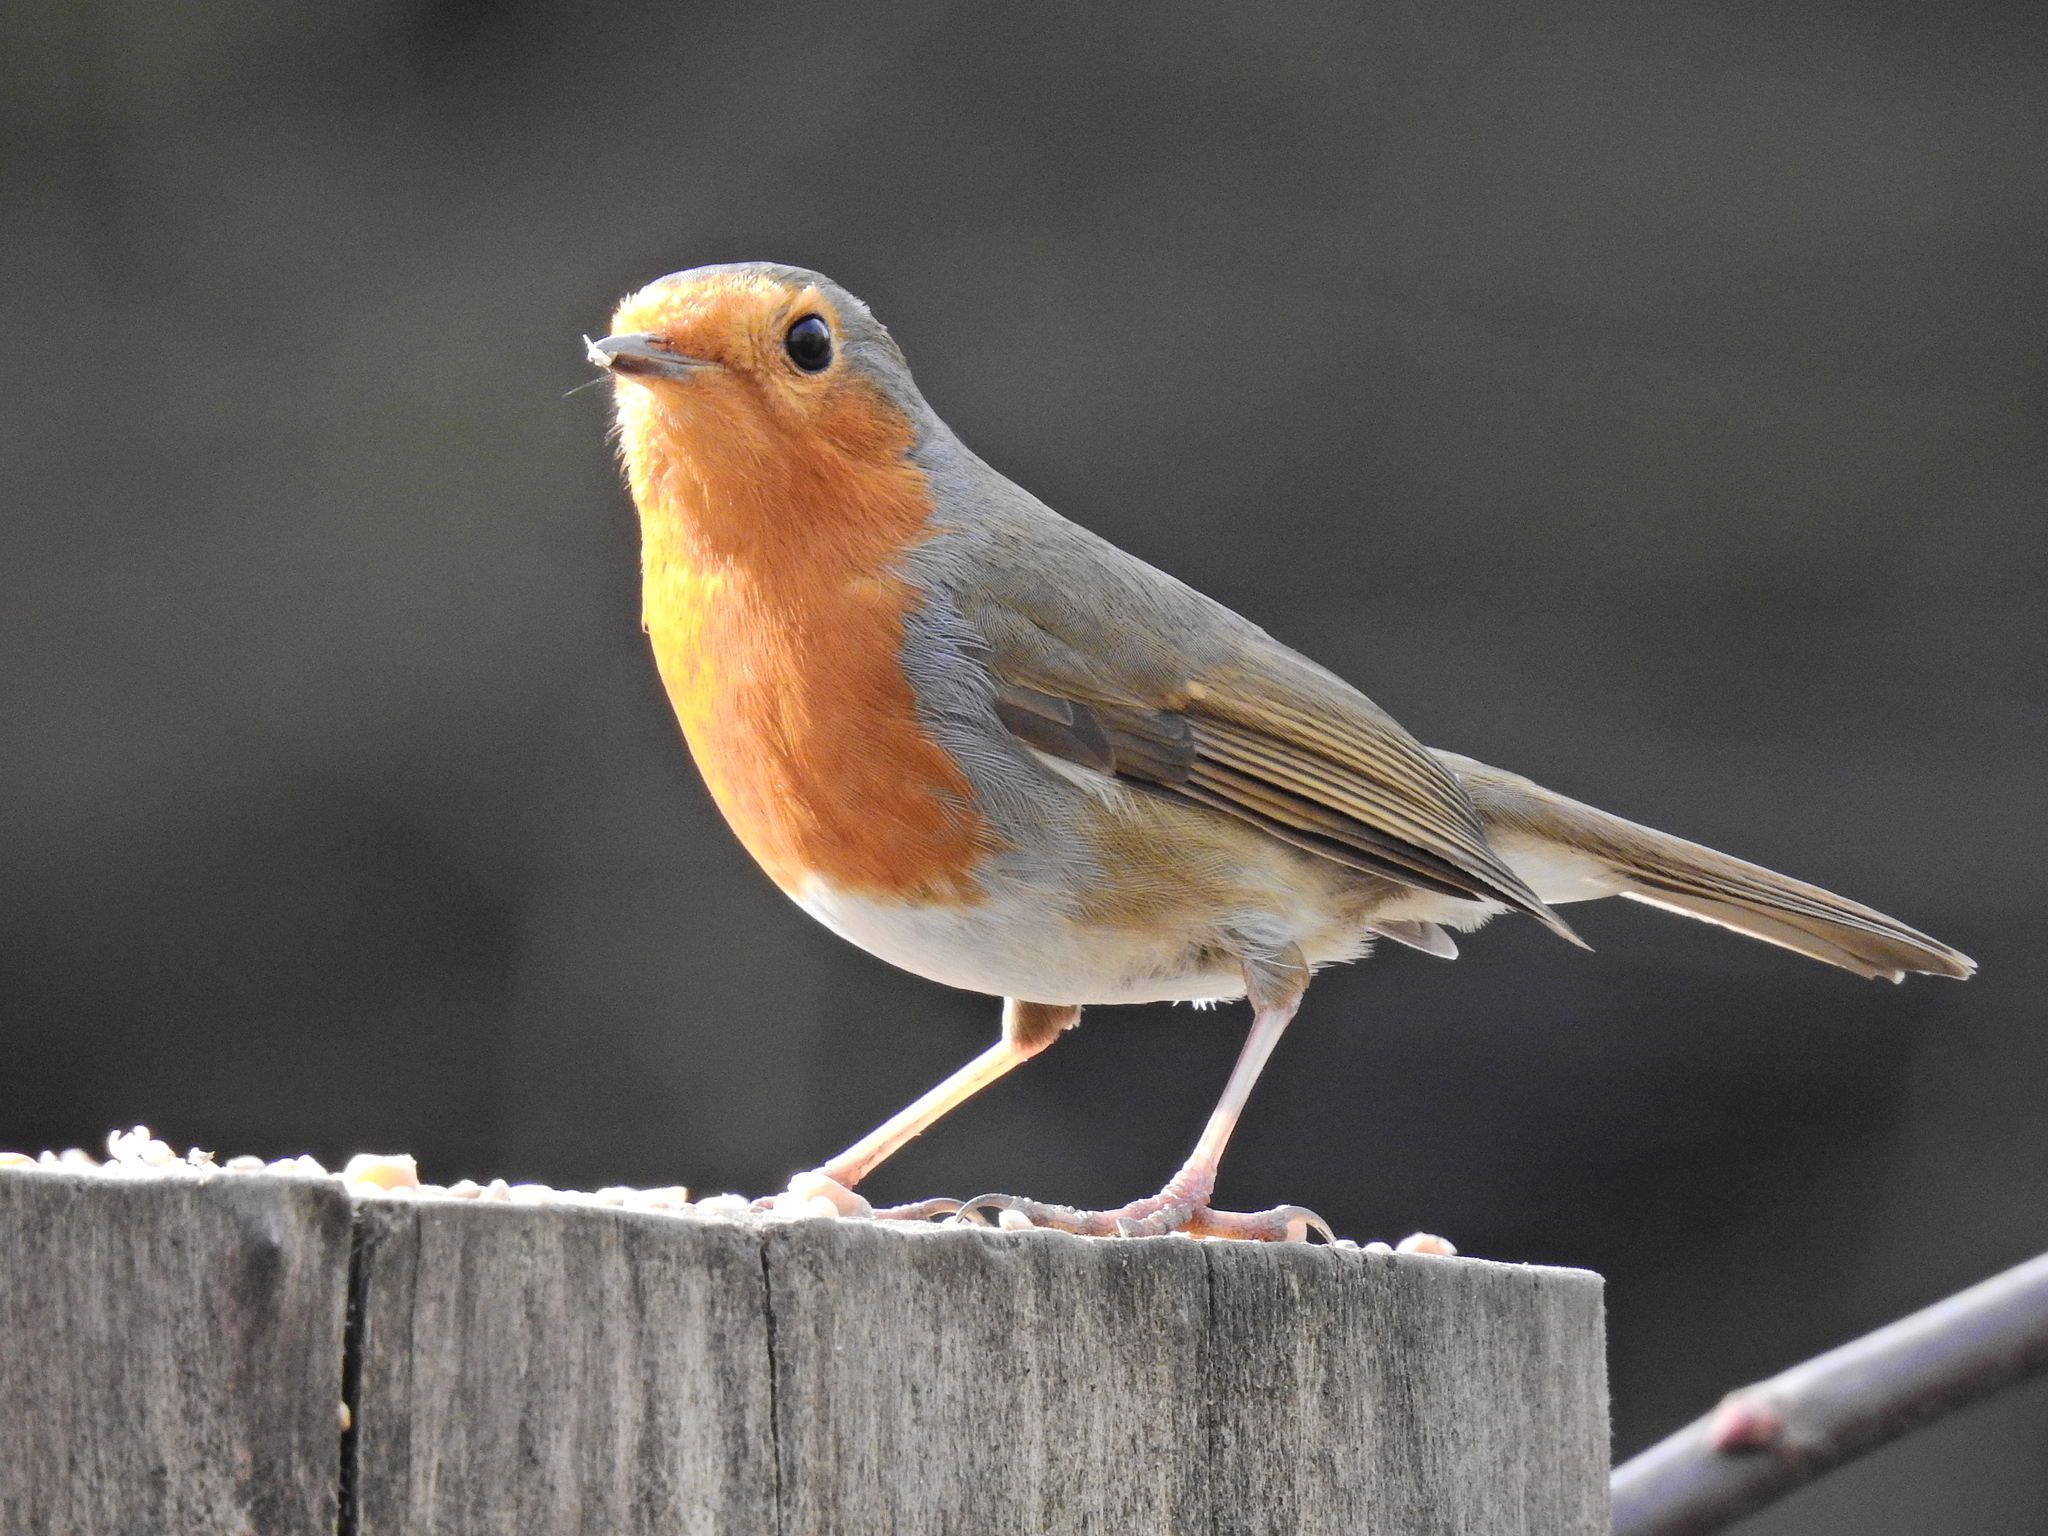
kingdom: Animalia
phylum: Chordata
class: Aves
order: Passeriformes
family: Muscicapidae
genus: Erithacus
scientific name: Erithacus rubecula
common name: European robin
